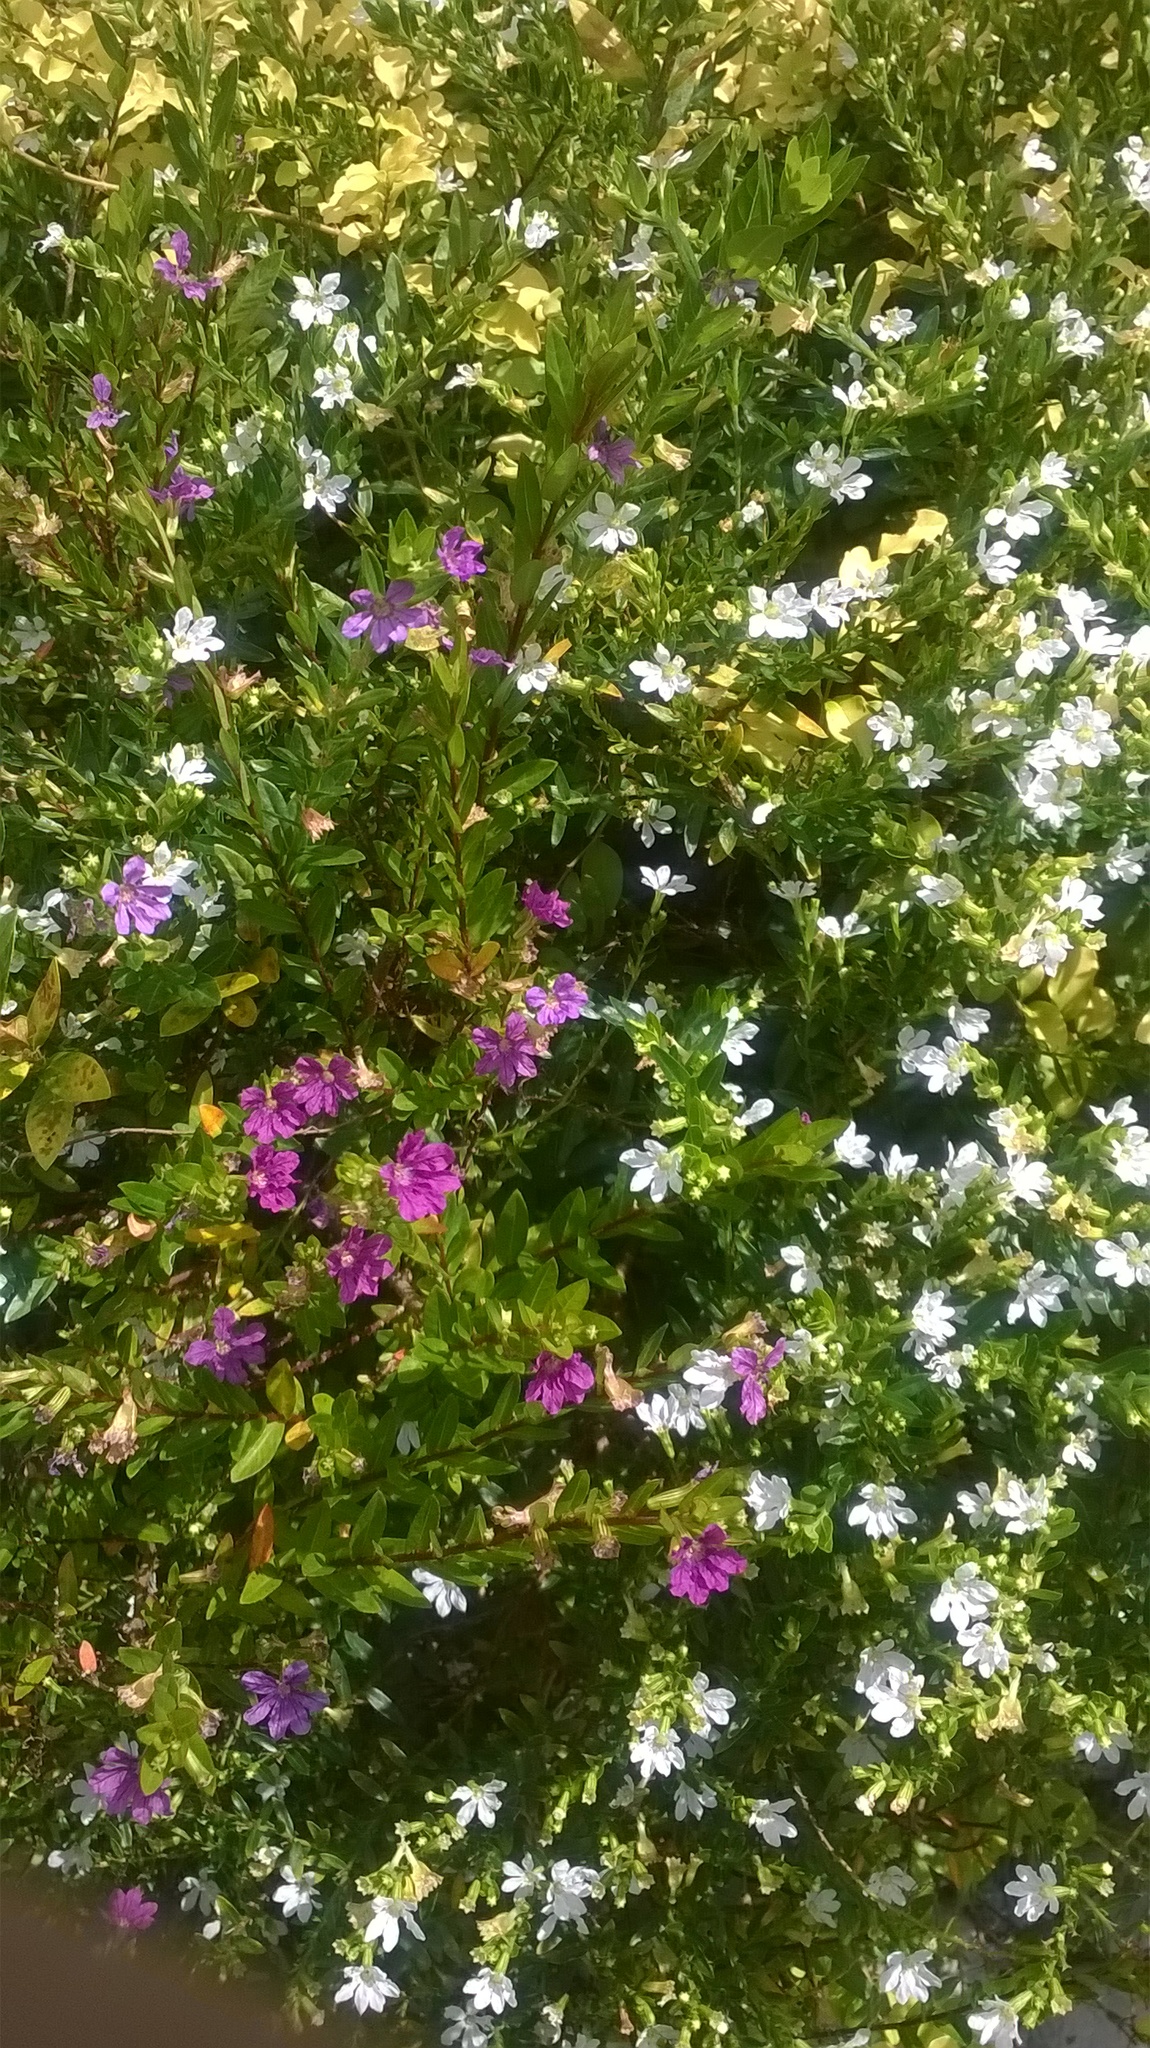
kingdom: Plantae
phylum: Tracheophyta
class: Magnoliopsida
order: Myrtales
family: Lythraceae
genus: Cuphea
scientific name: Cuphea hyssopifolia
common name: False heather
